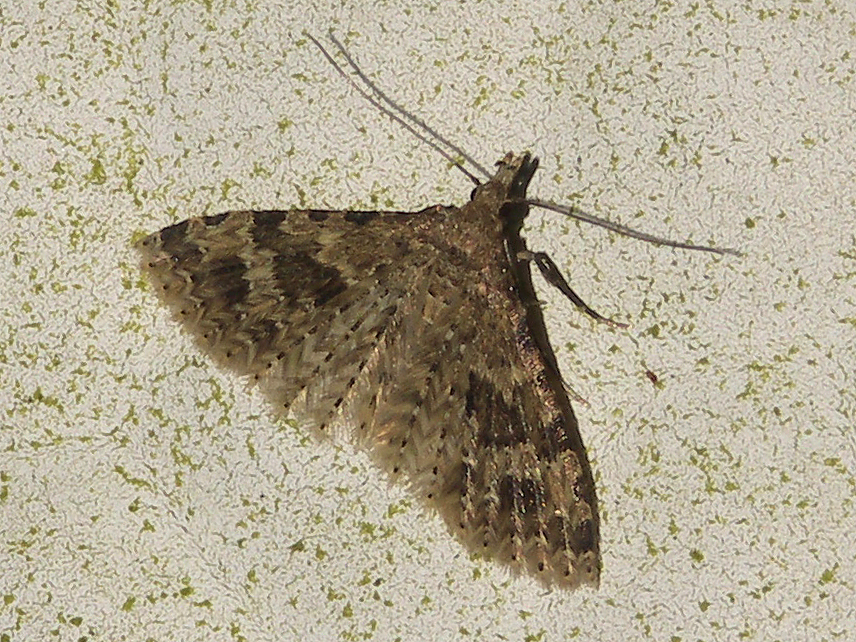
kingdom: Animalia
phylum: Arthropoda
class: Insecta
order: Lepidoptera
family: Alucitidae
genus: Alucita
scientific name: Alucita hexadactyla
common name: Twenty-plume moth
